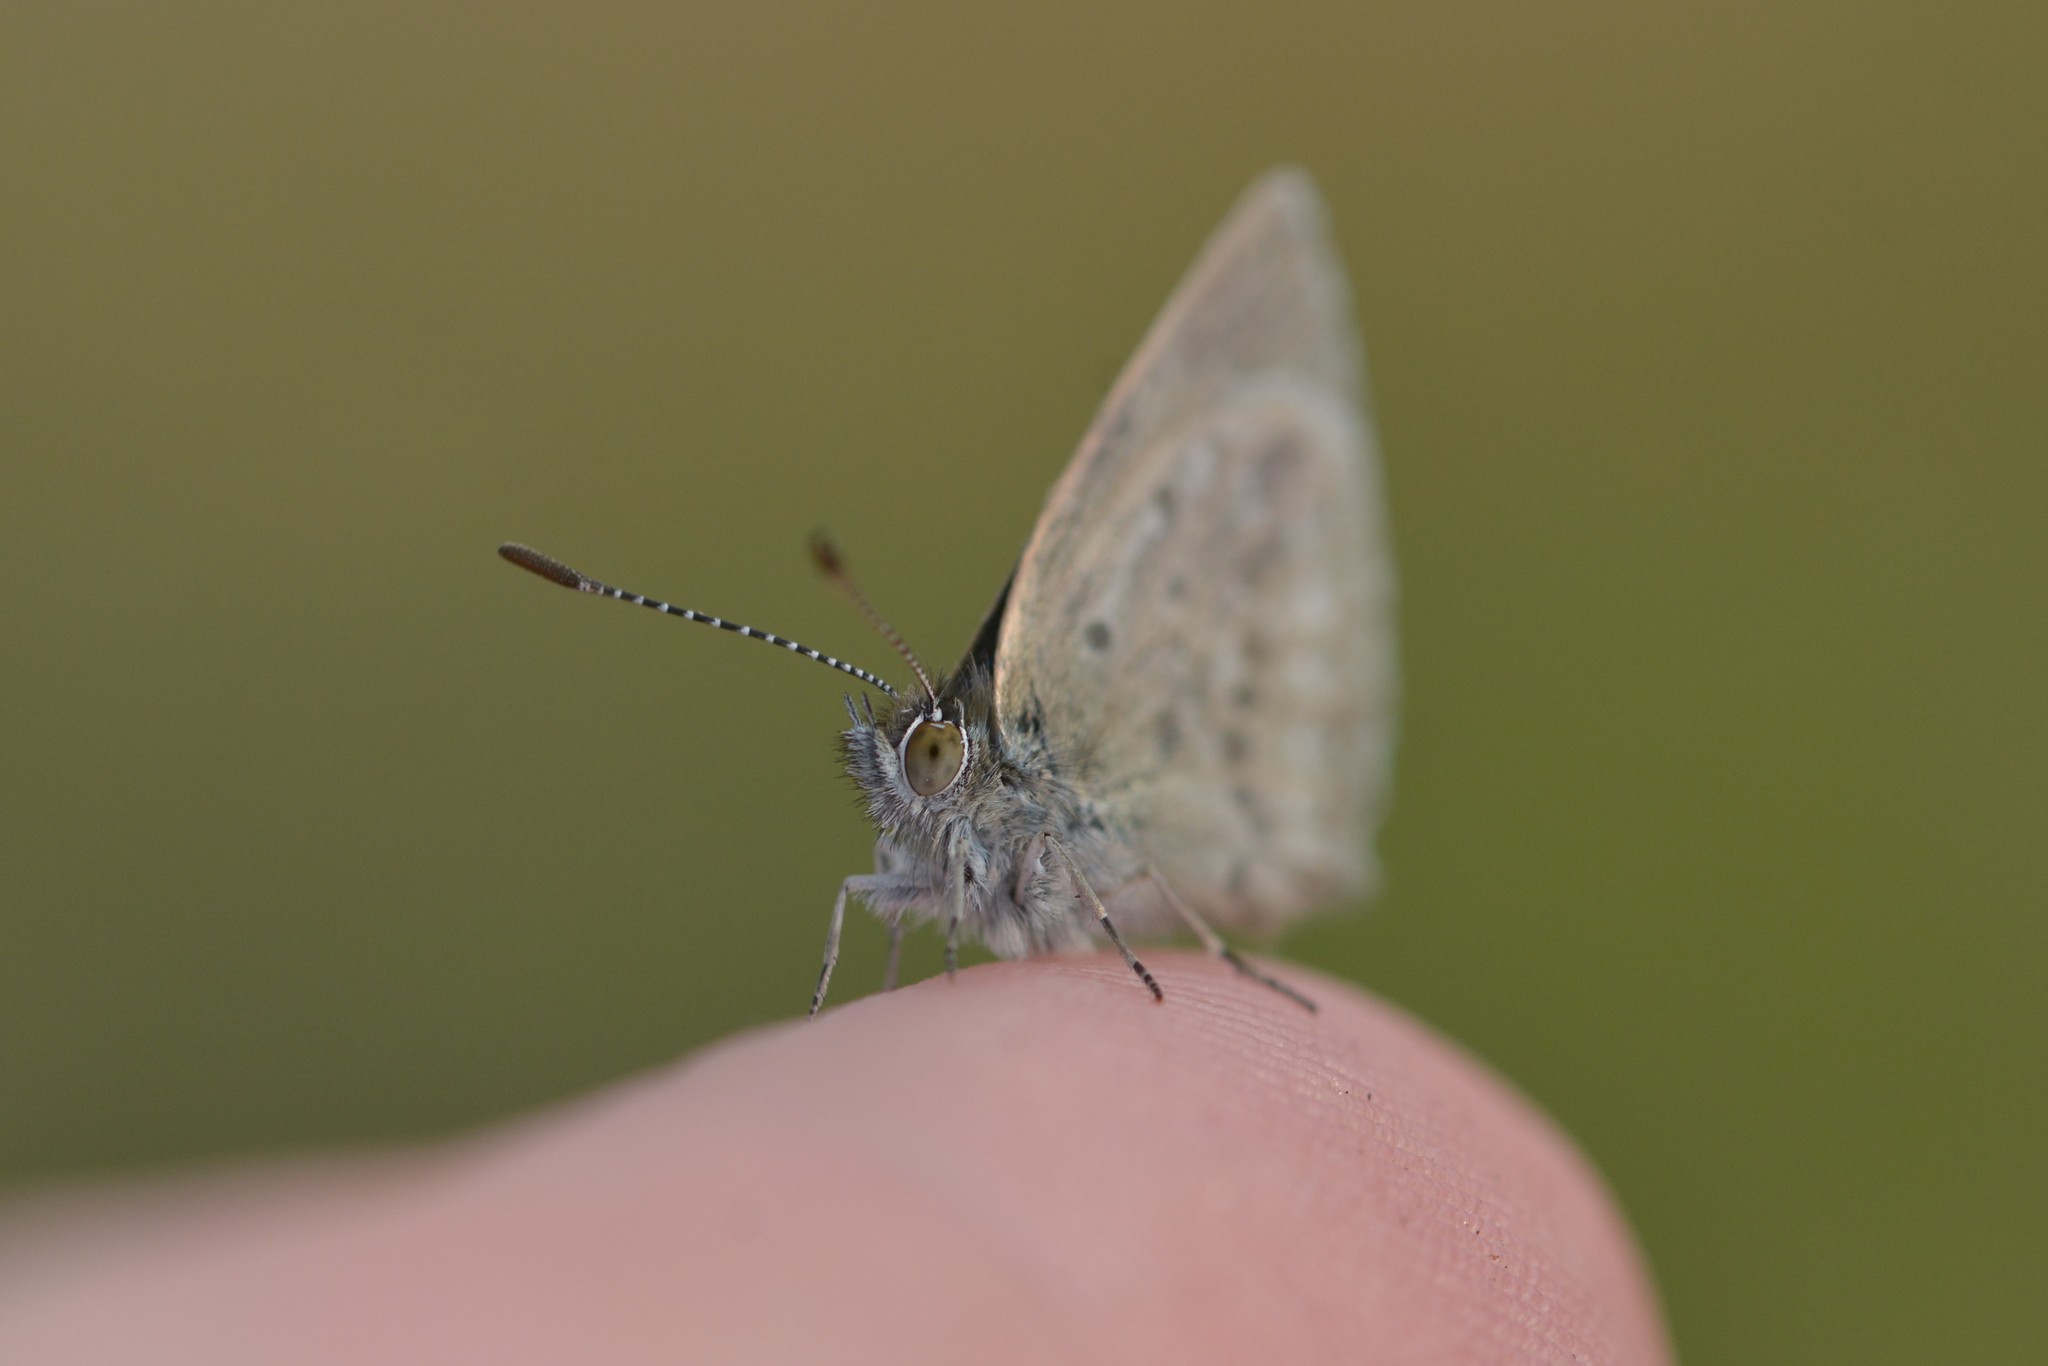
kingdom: Animalia
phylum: Arthropoda
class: Insecta
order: Lepidoptera
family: Lycaenidae
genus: Zizina
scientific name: Zizina labradus
